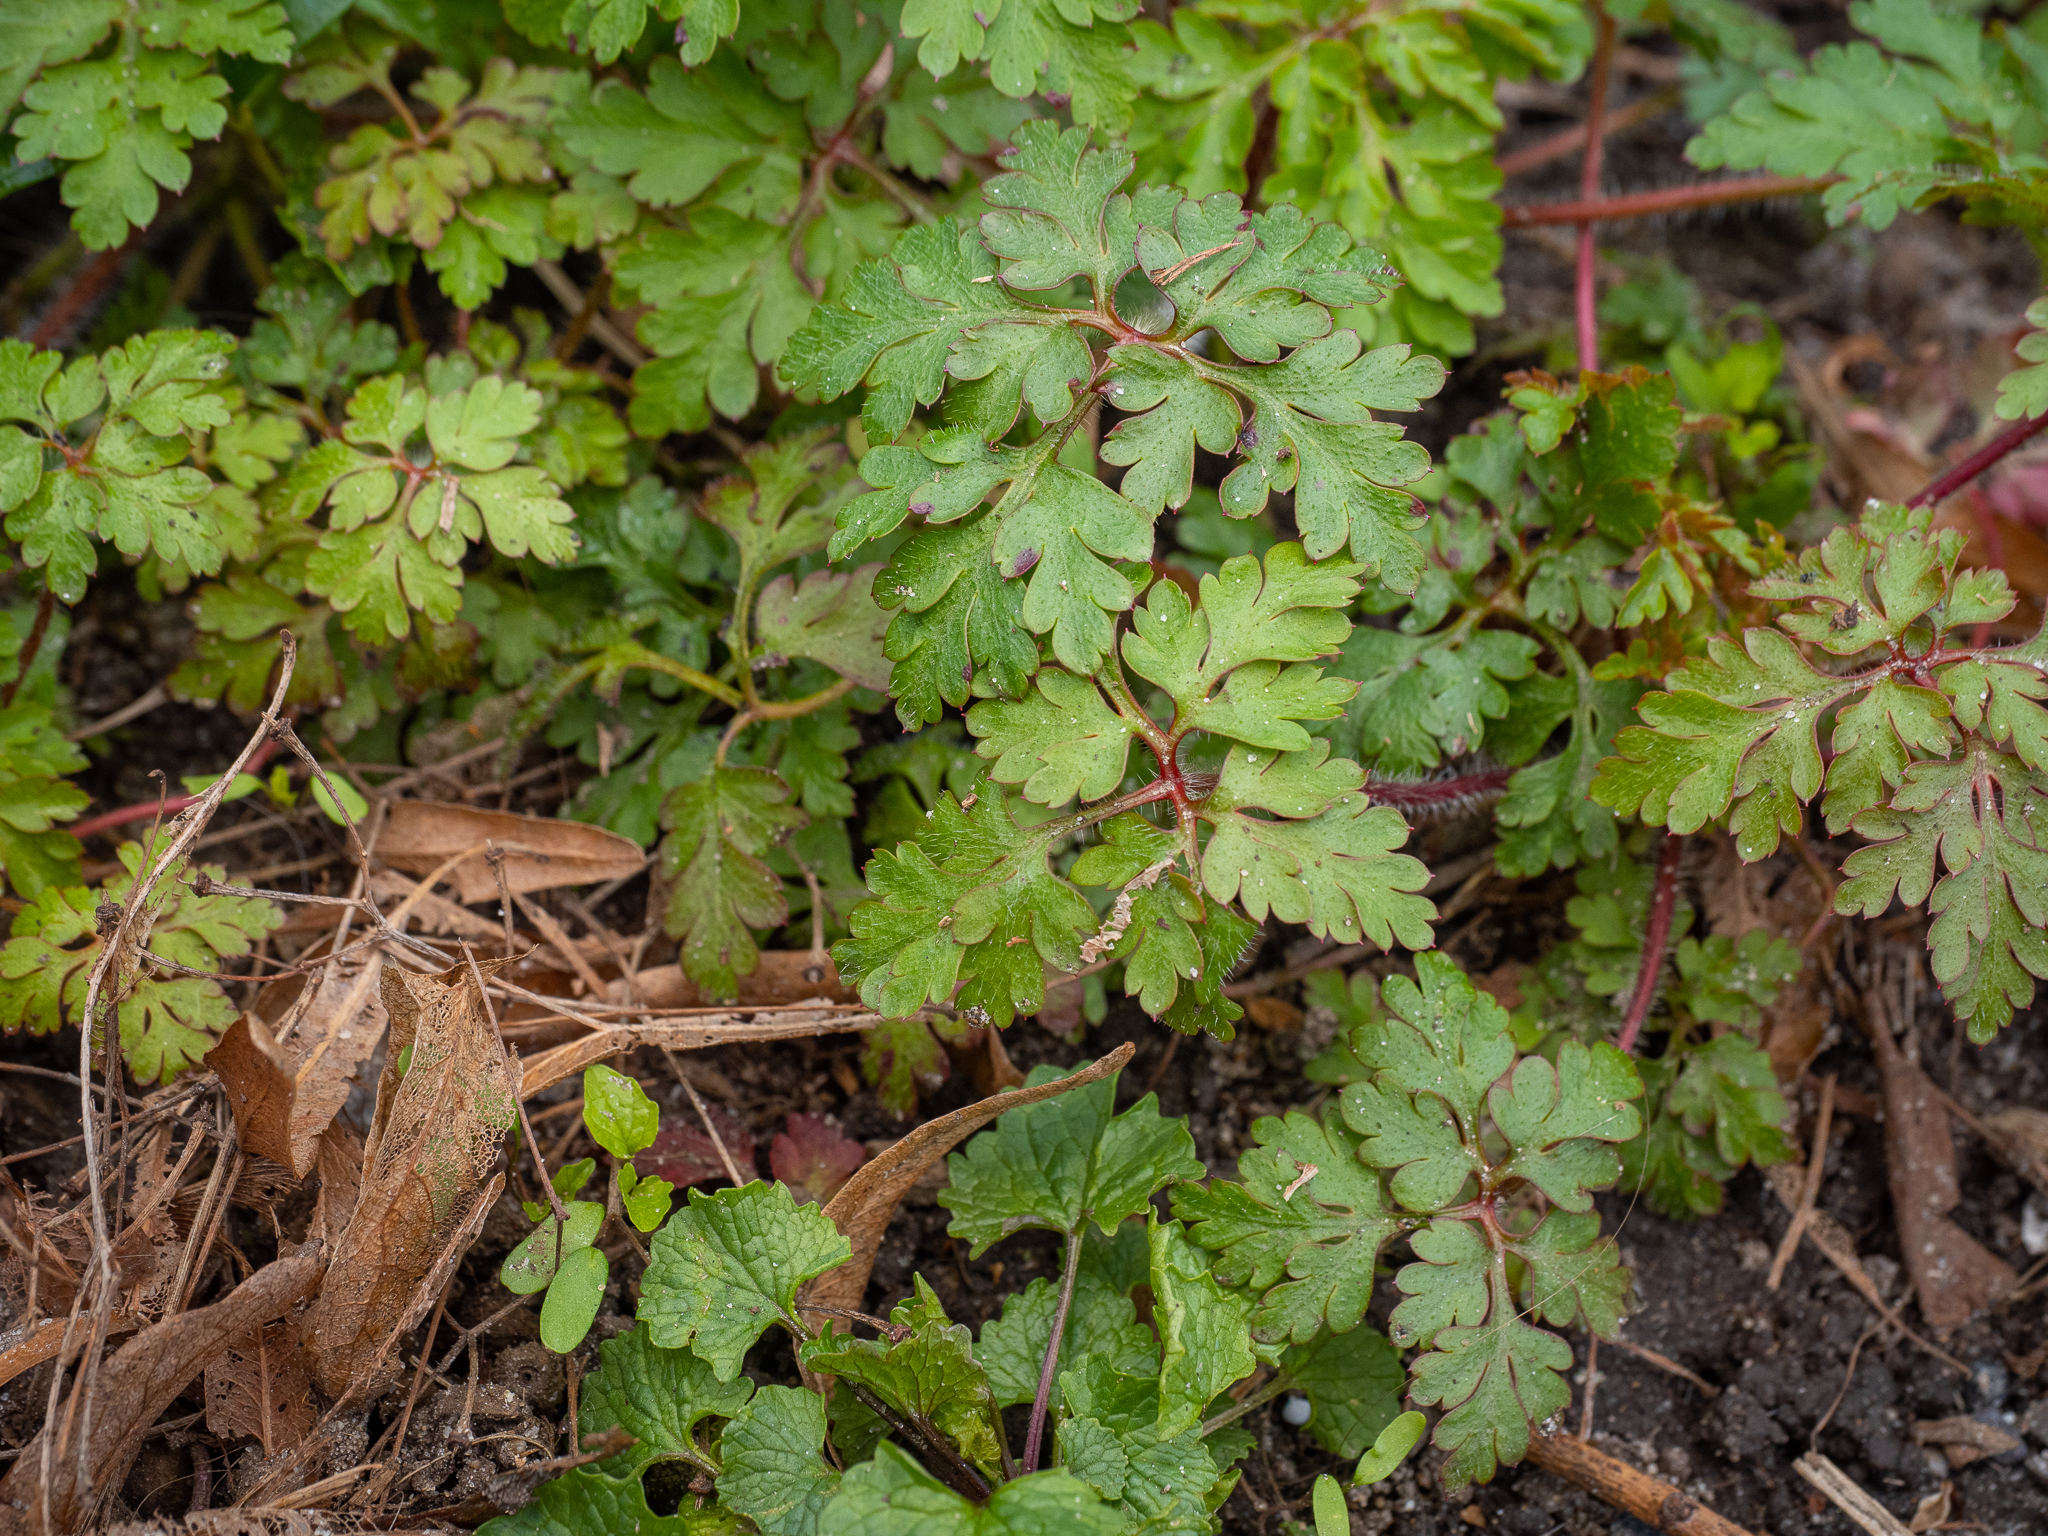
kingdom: Plantae
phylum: Tracheophyta
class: Magnoliopsida
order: Geraniales
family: Geraniaceae
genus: Geranium
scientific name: Geranium robertianum
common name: Herb-robert
